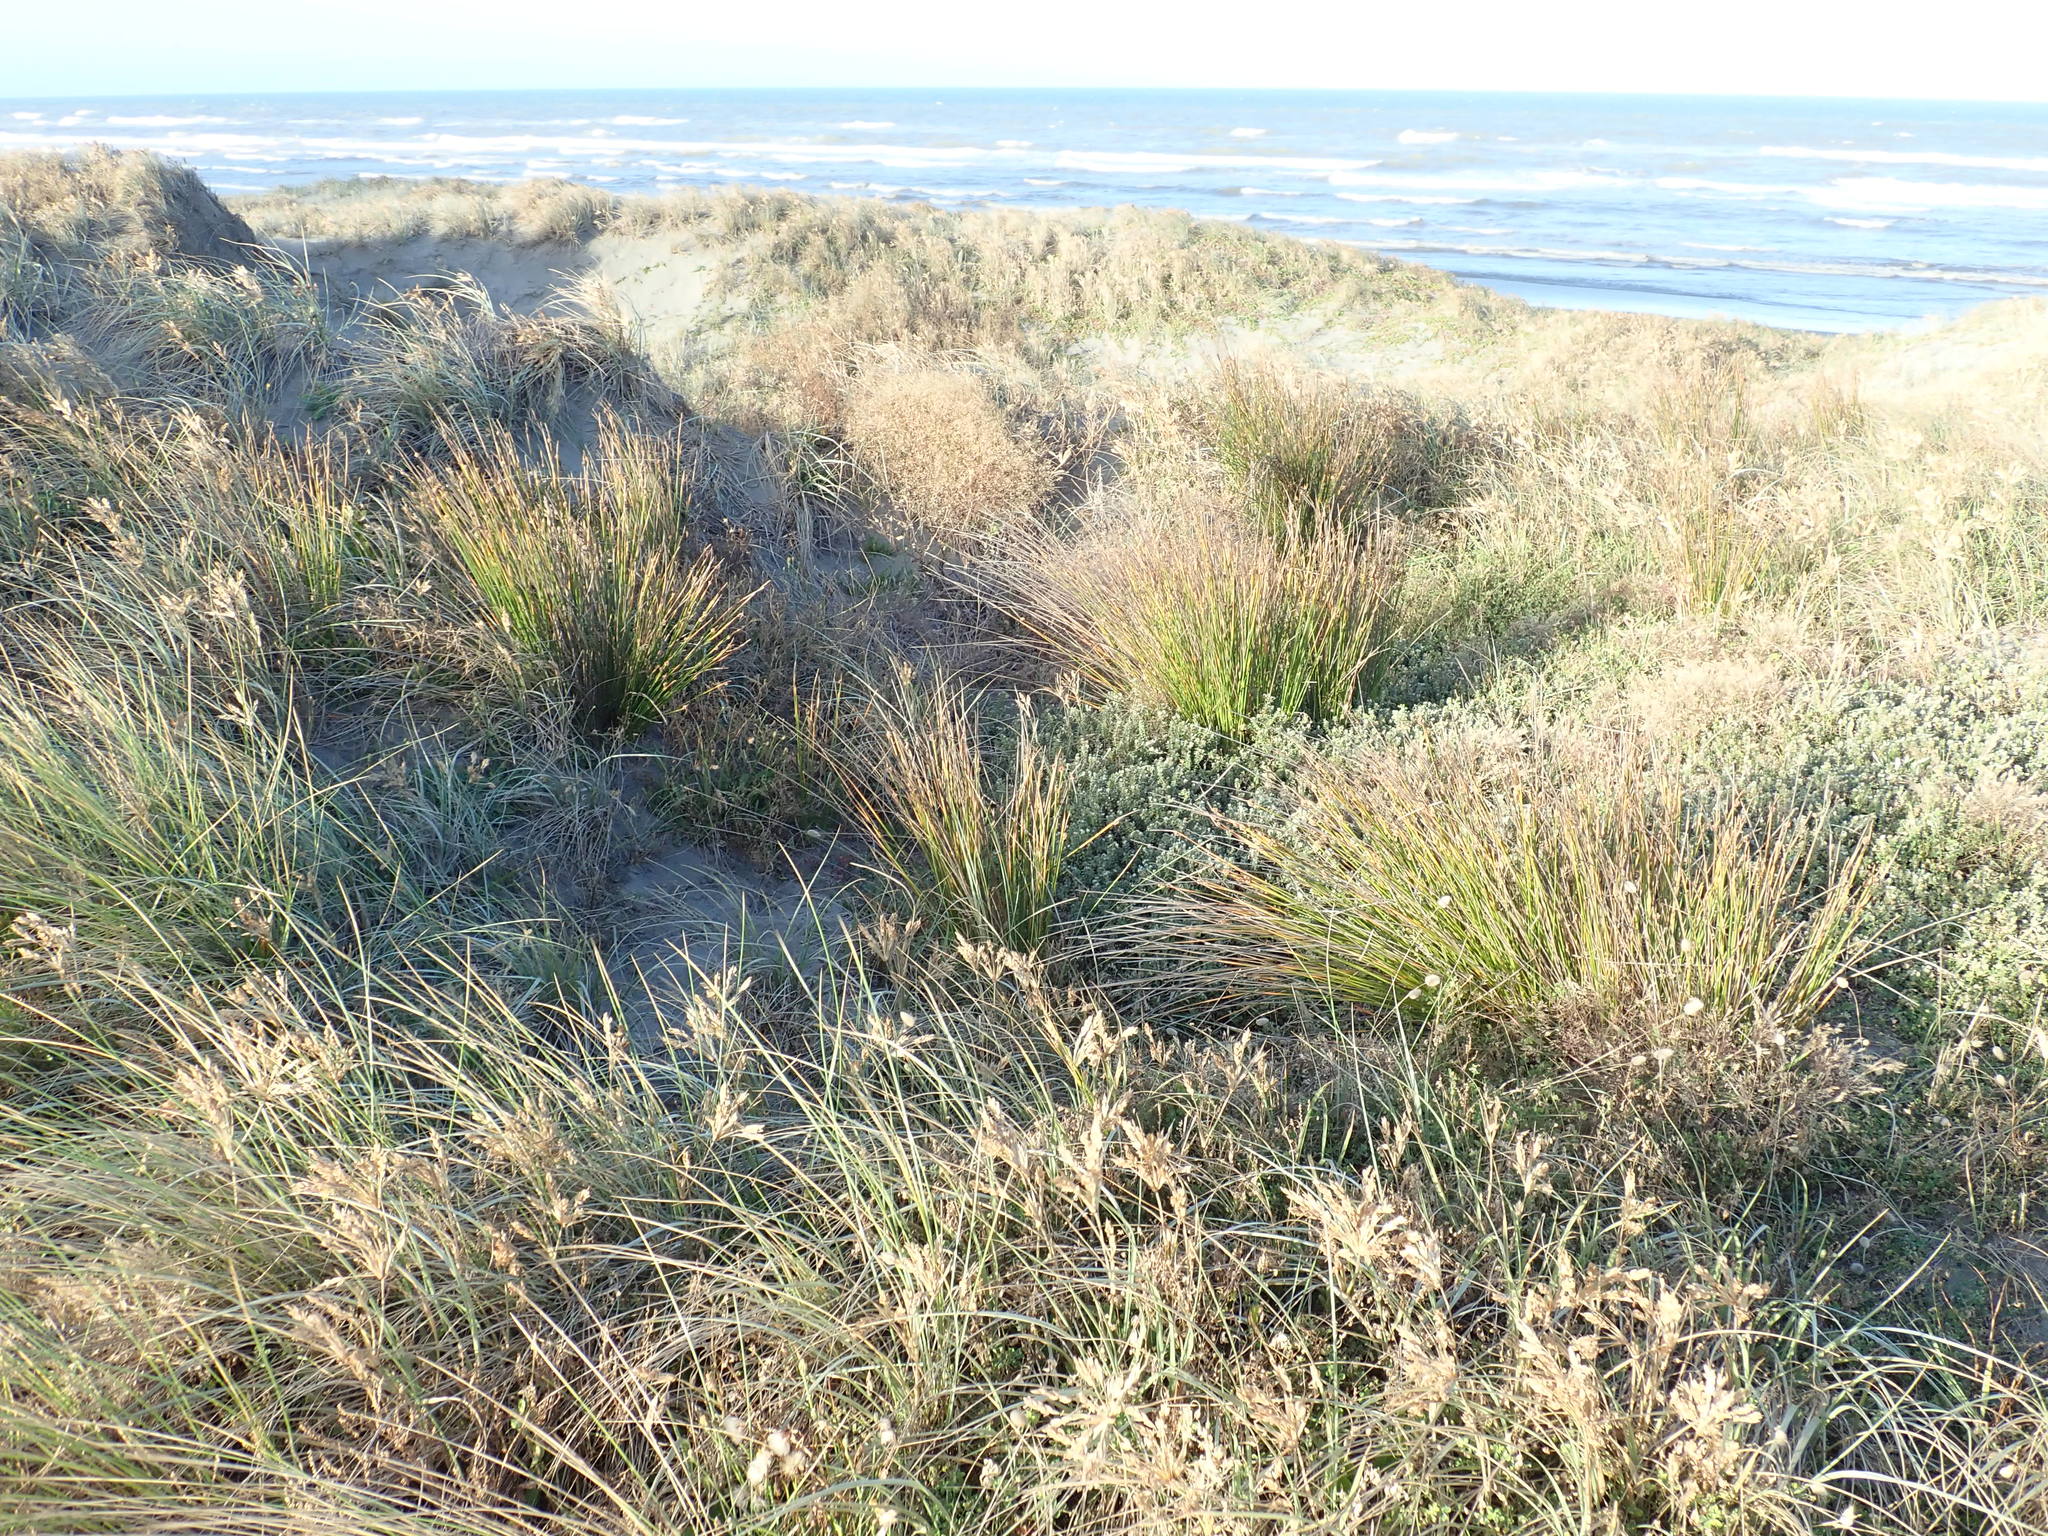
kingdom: Plantae
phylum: Tracheophyta
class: Magnoliopsida
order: Malvales
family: Thymelaeaceae
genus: Pimelea
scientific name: Pimelea villosa
